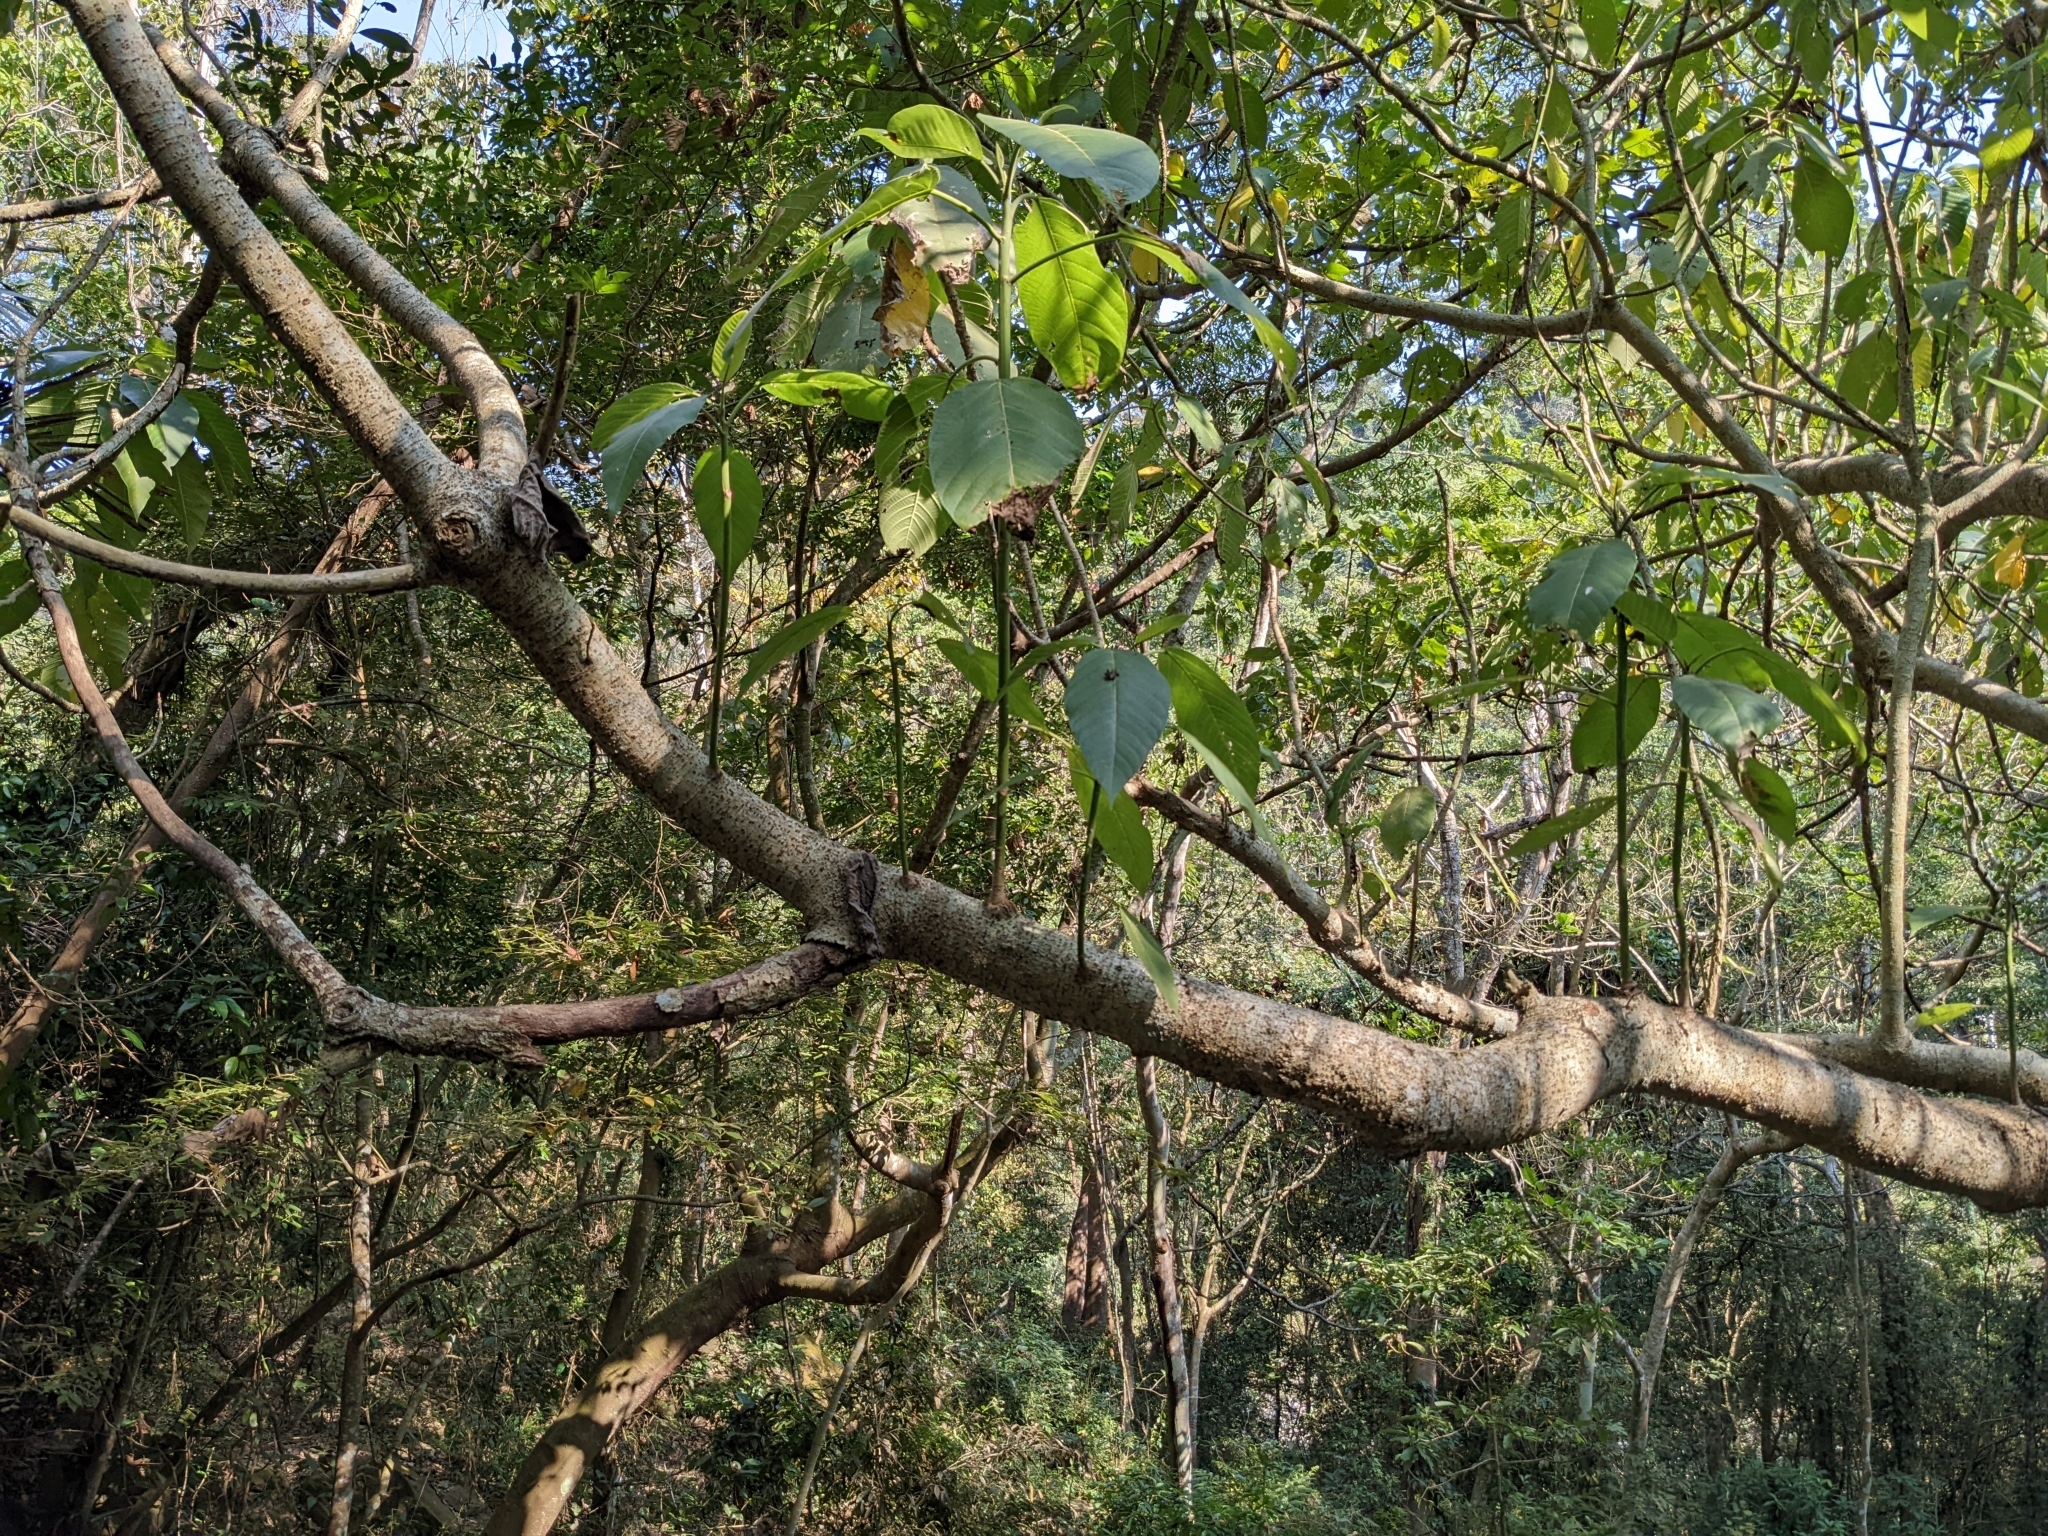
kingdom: Plantae
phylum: Tracheophyta
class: Magnoliopsida
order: Rosales
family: Urticaceae
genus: Dendrocnide
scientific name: Dendrocnide meyeniana
